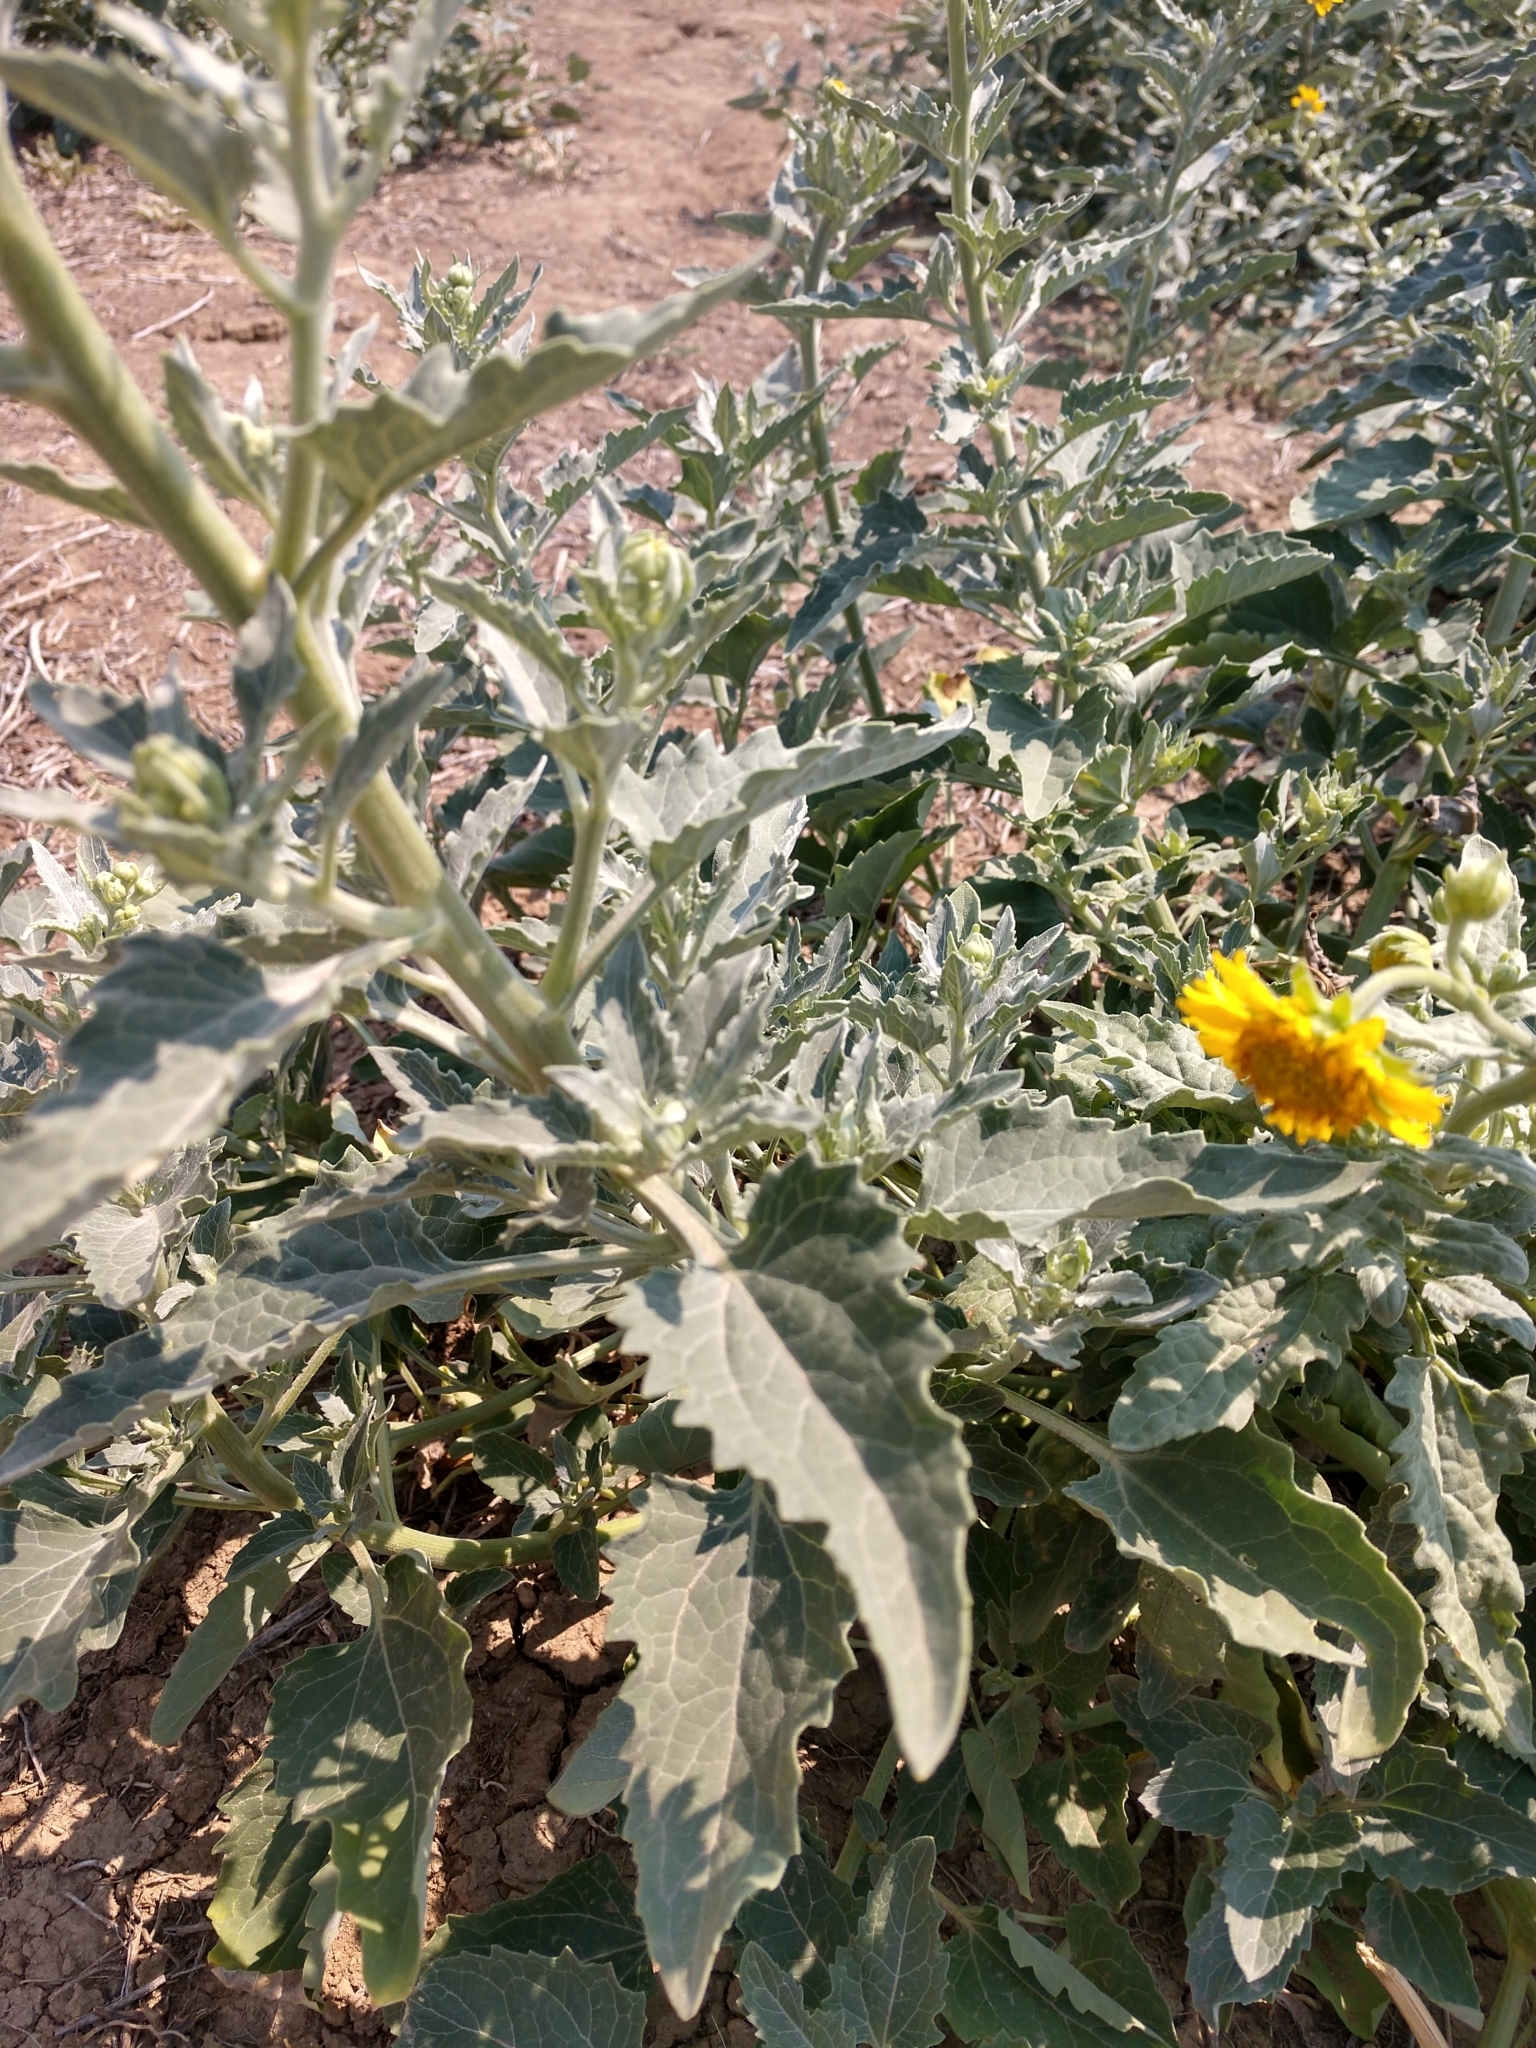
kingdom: Plantae
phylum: Tracheophyta
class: Magnoliopsida
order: Asterales
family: Asteraceae
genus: Verbesina
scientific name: Verbesina encelioides
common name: Golden crownbeard
